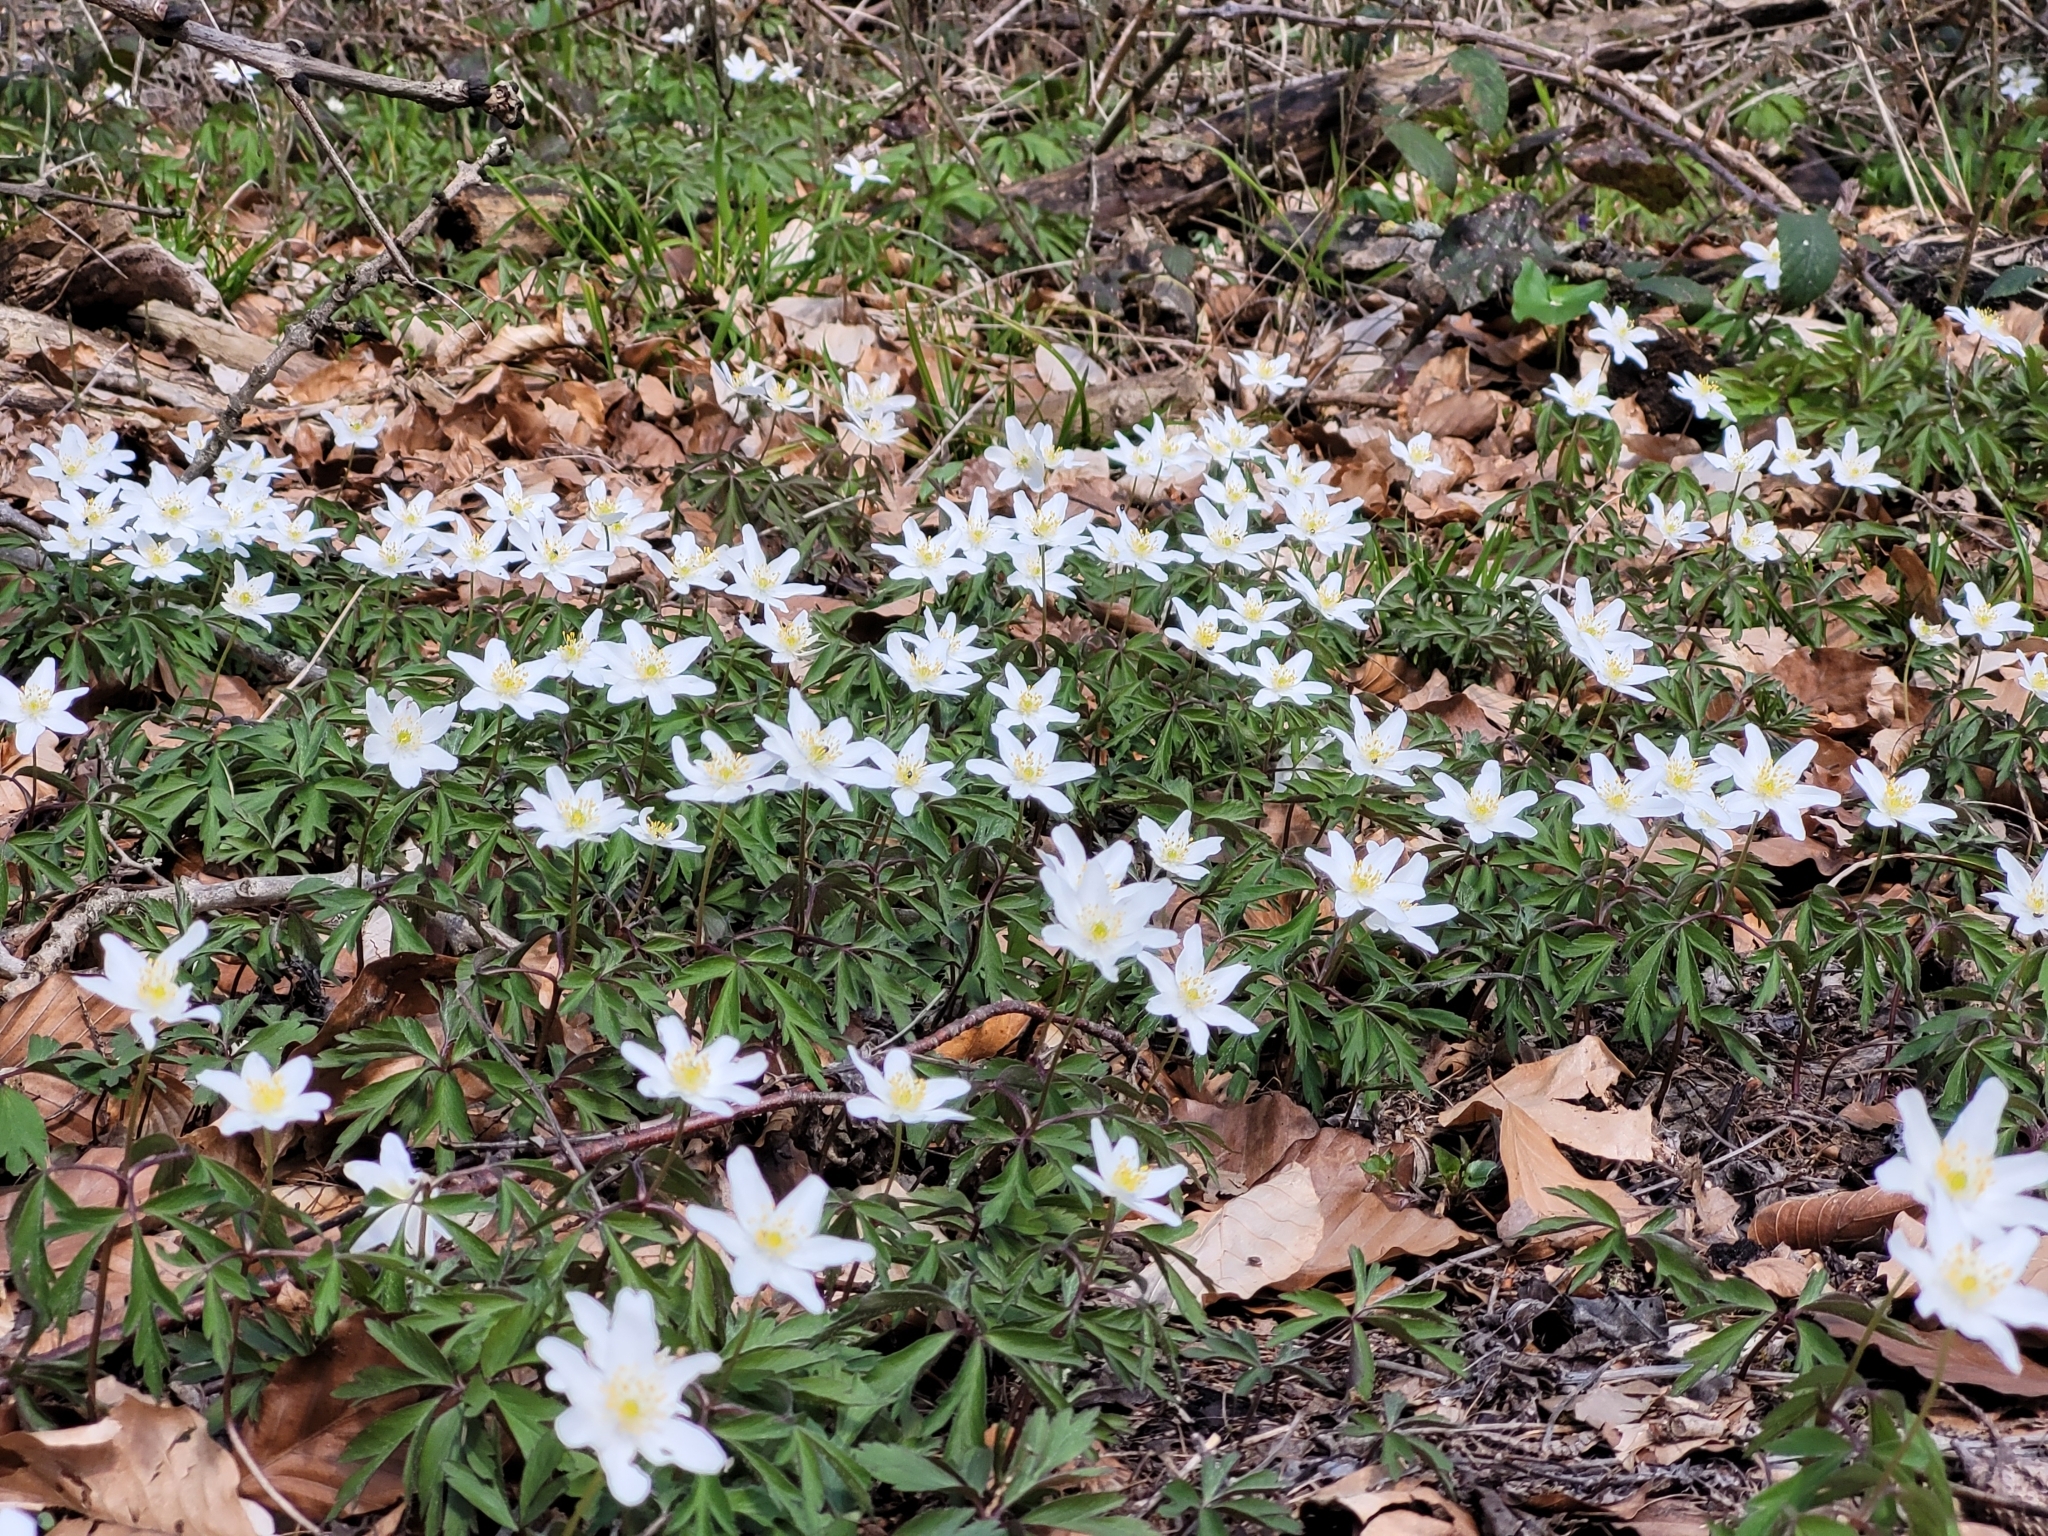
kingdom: Plantae
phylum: Tracheophyta
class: Magnoliopsida
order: Ranunculales
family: Ranunculaceae
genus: Anemone
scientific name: Anemone nemorosa
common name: Wood anemone
